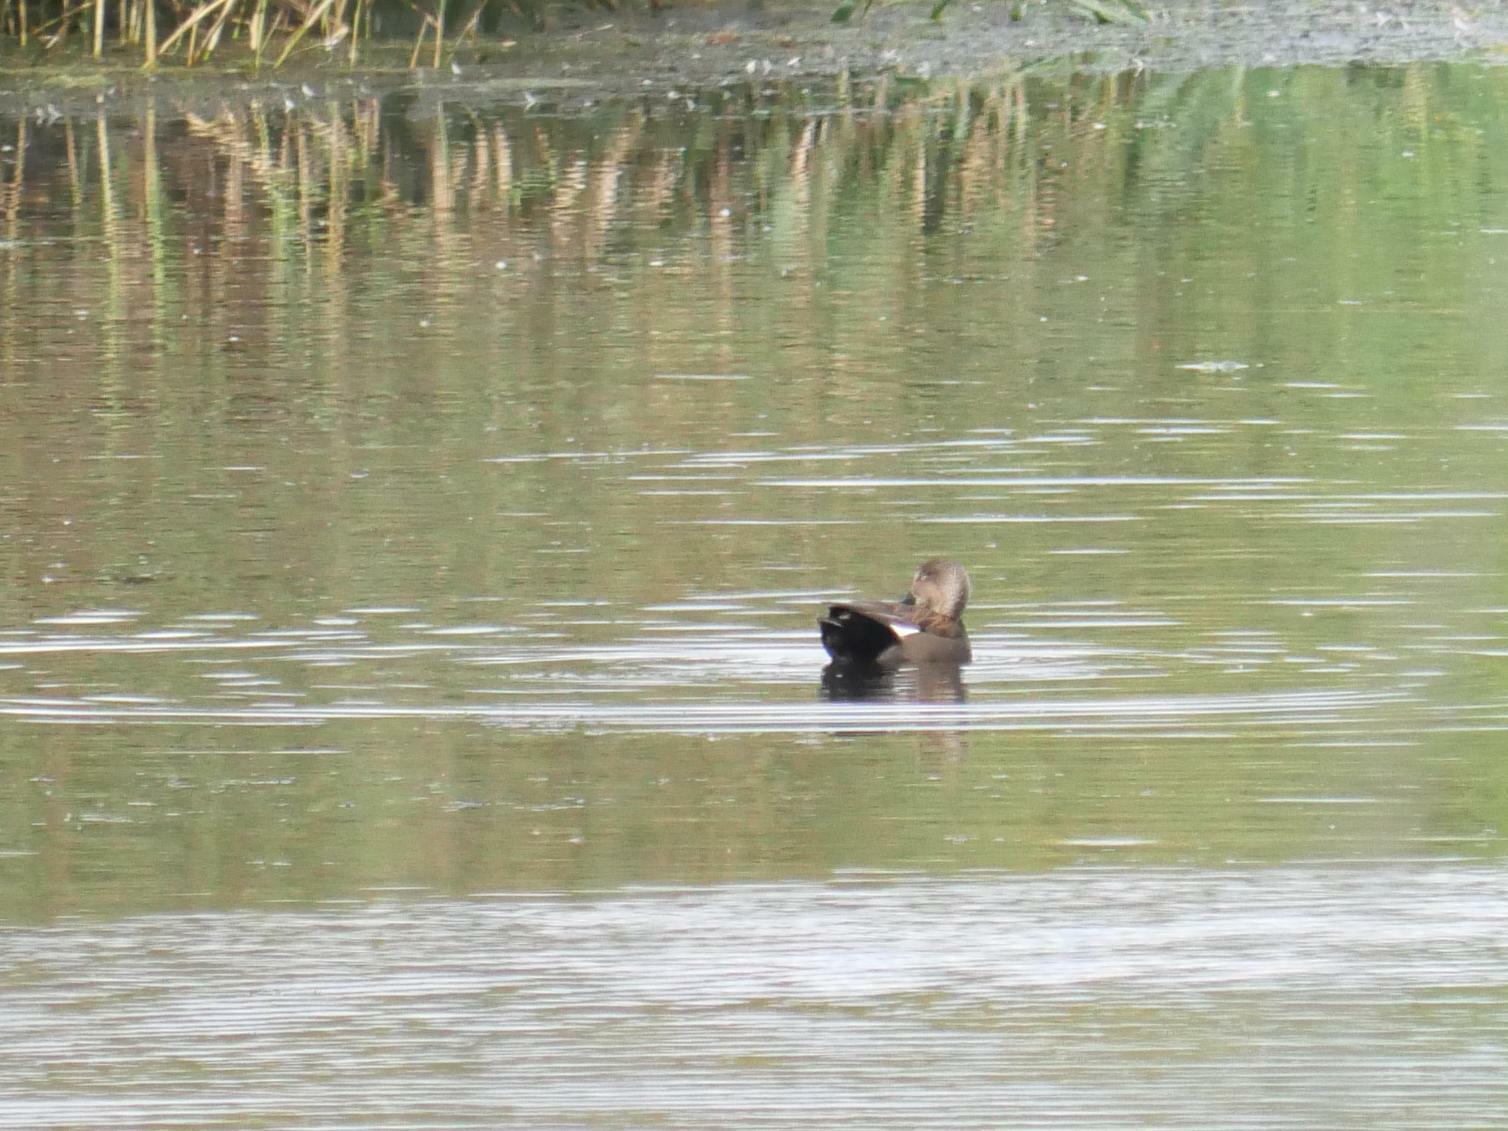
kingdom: Animalia
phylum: Chordata
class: Aves
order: Anseriformes
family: Anatidae
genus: Mareca
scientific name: Mareca strepera
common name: Gadwall
